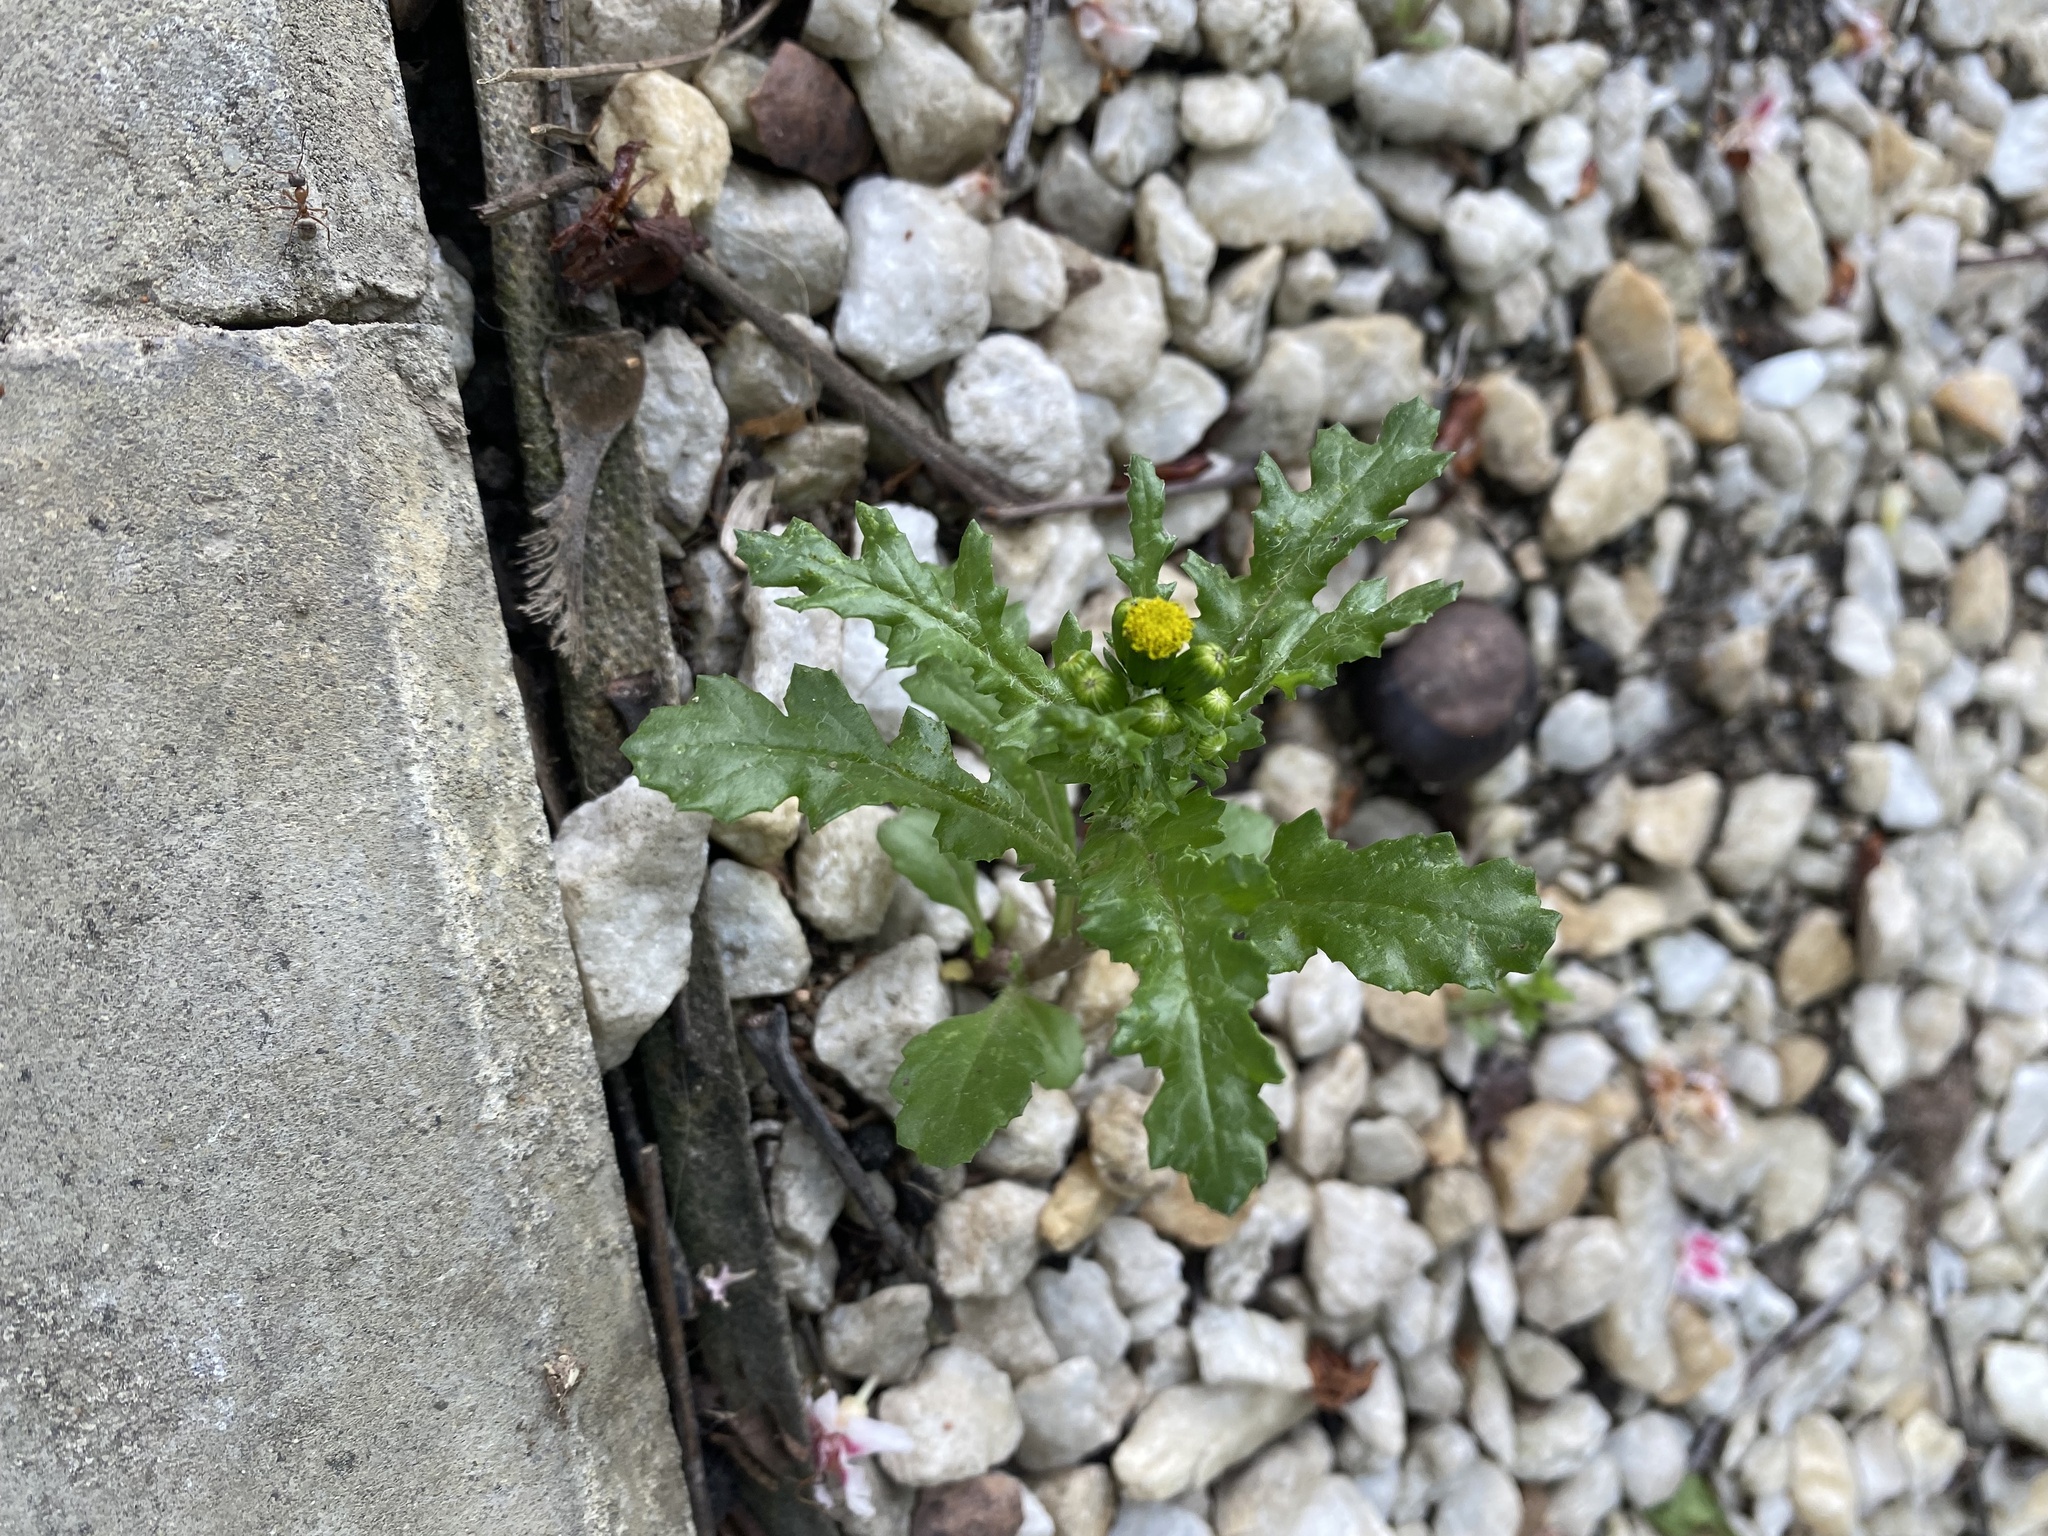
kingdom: Plantae
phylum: Tracheophyta
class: Magnoliopsida
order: Asterales
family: Asteraceae
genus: Senecio
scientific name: Senecio vulgaris
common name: Old-man-in-the-spring
